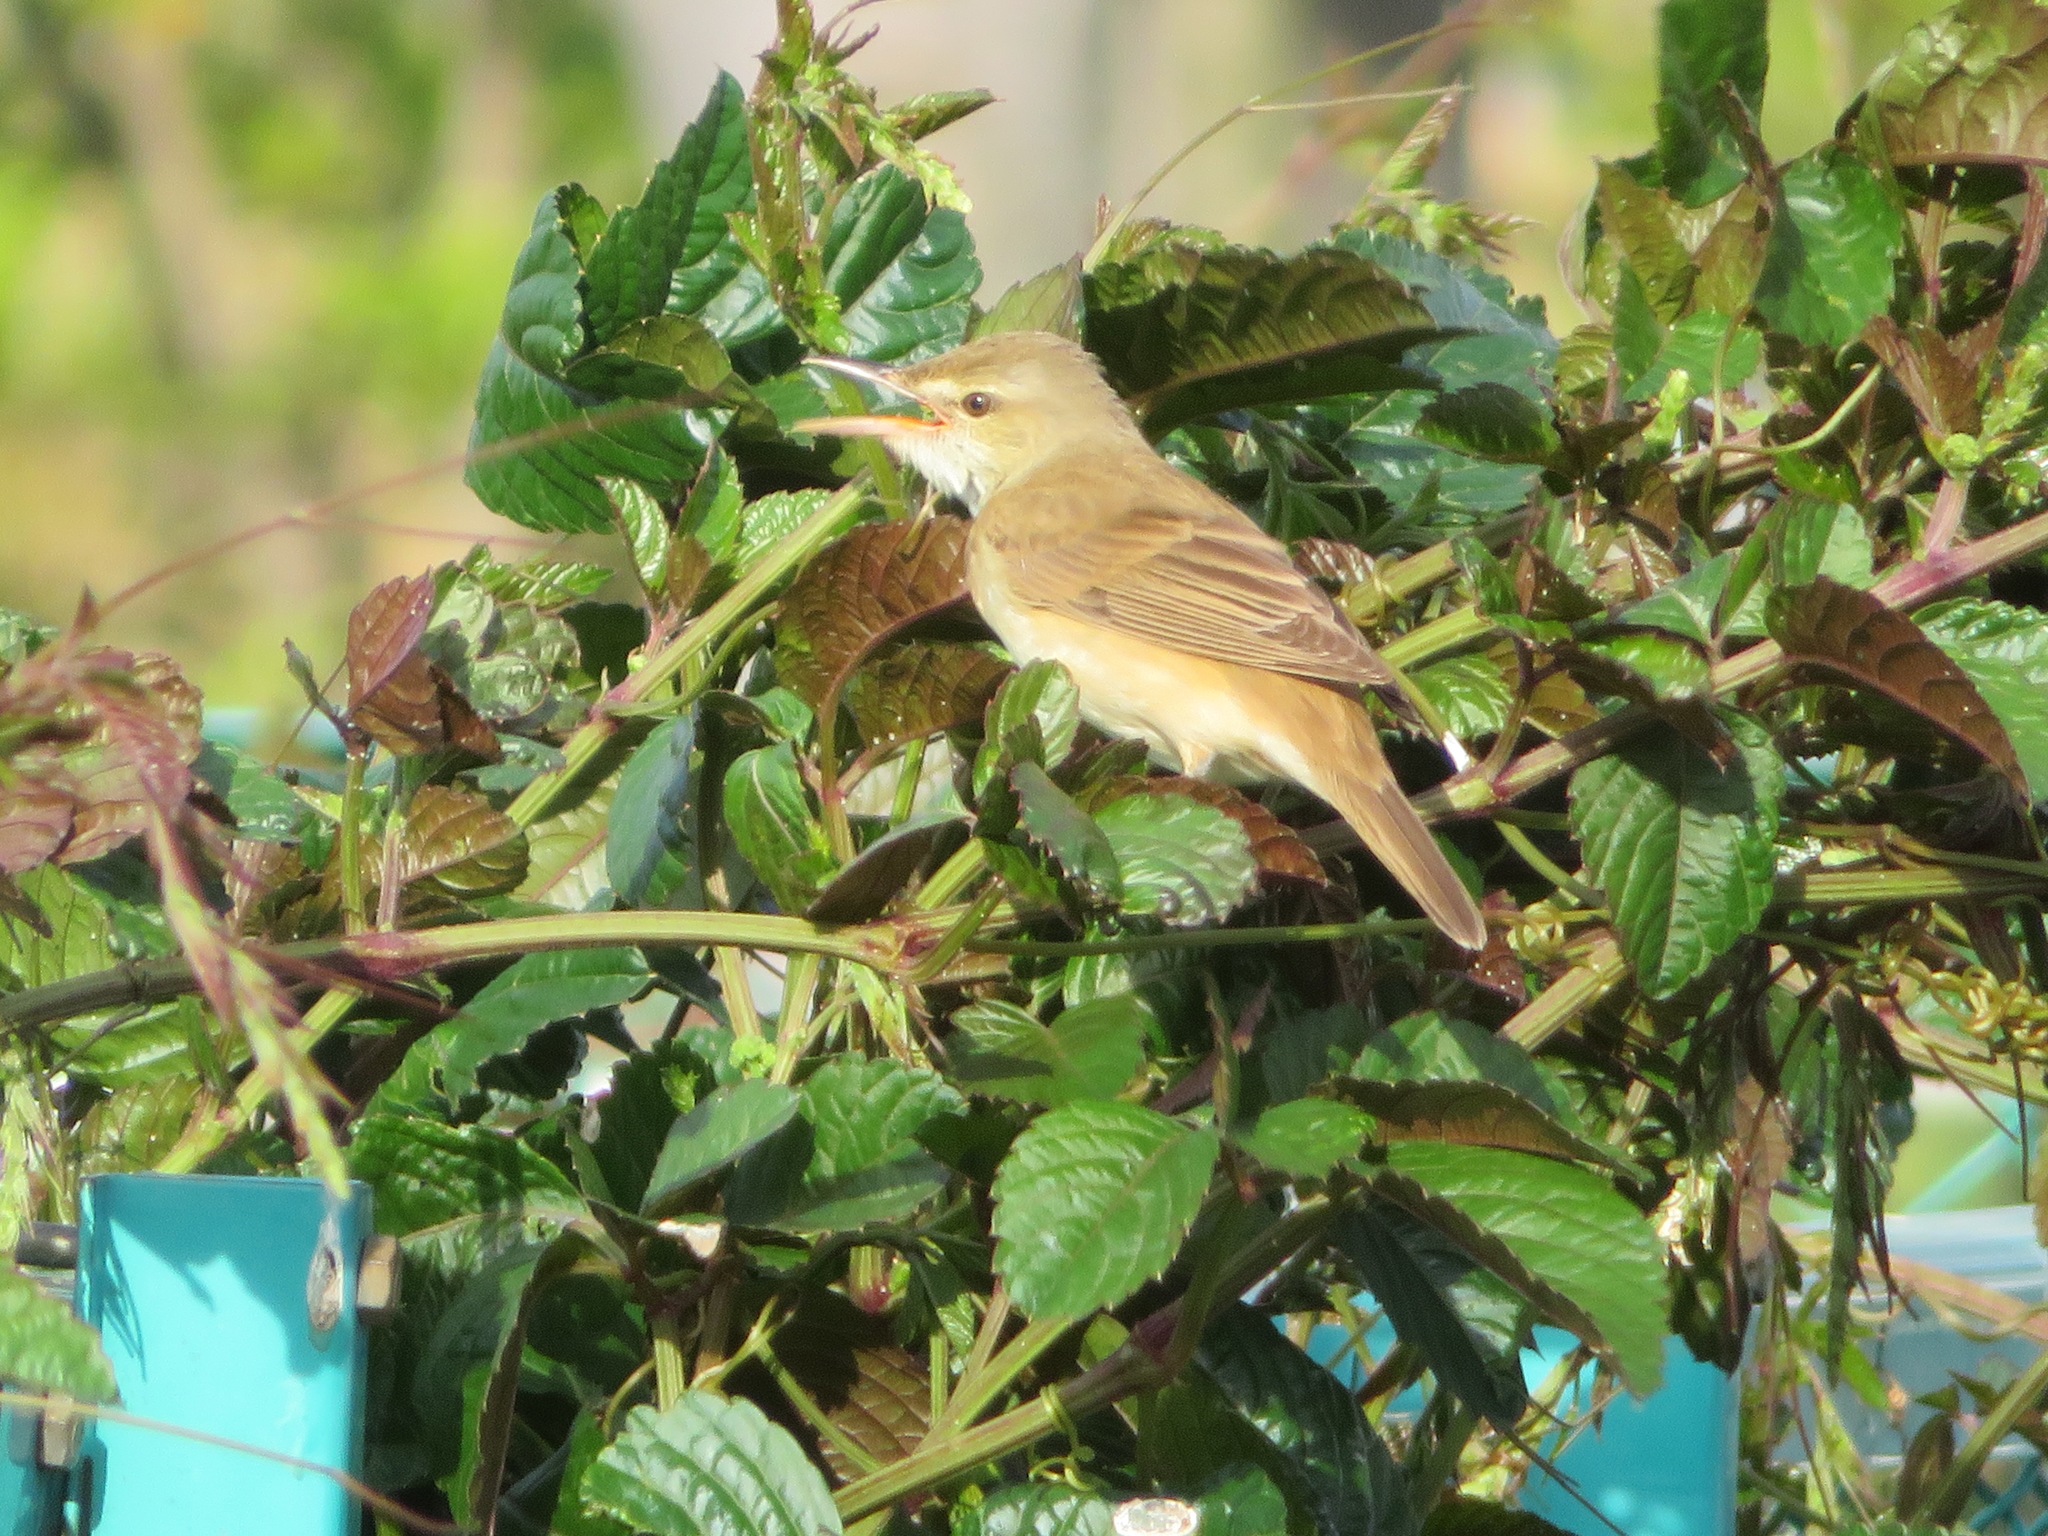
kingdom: Animalia
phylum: Chordata
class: Aves
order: Passeriformes
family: Acrocephalidae
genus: Acrocephalus
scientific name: Acrocephalus orientalis
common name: Oriental reed warbler
